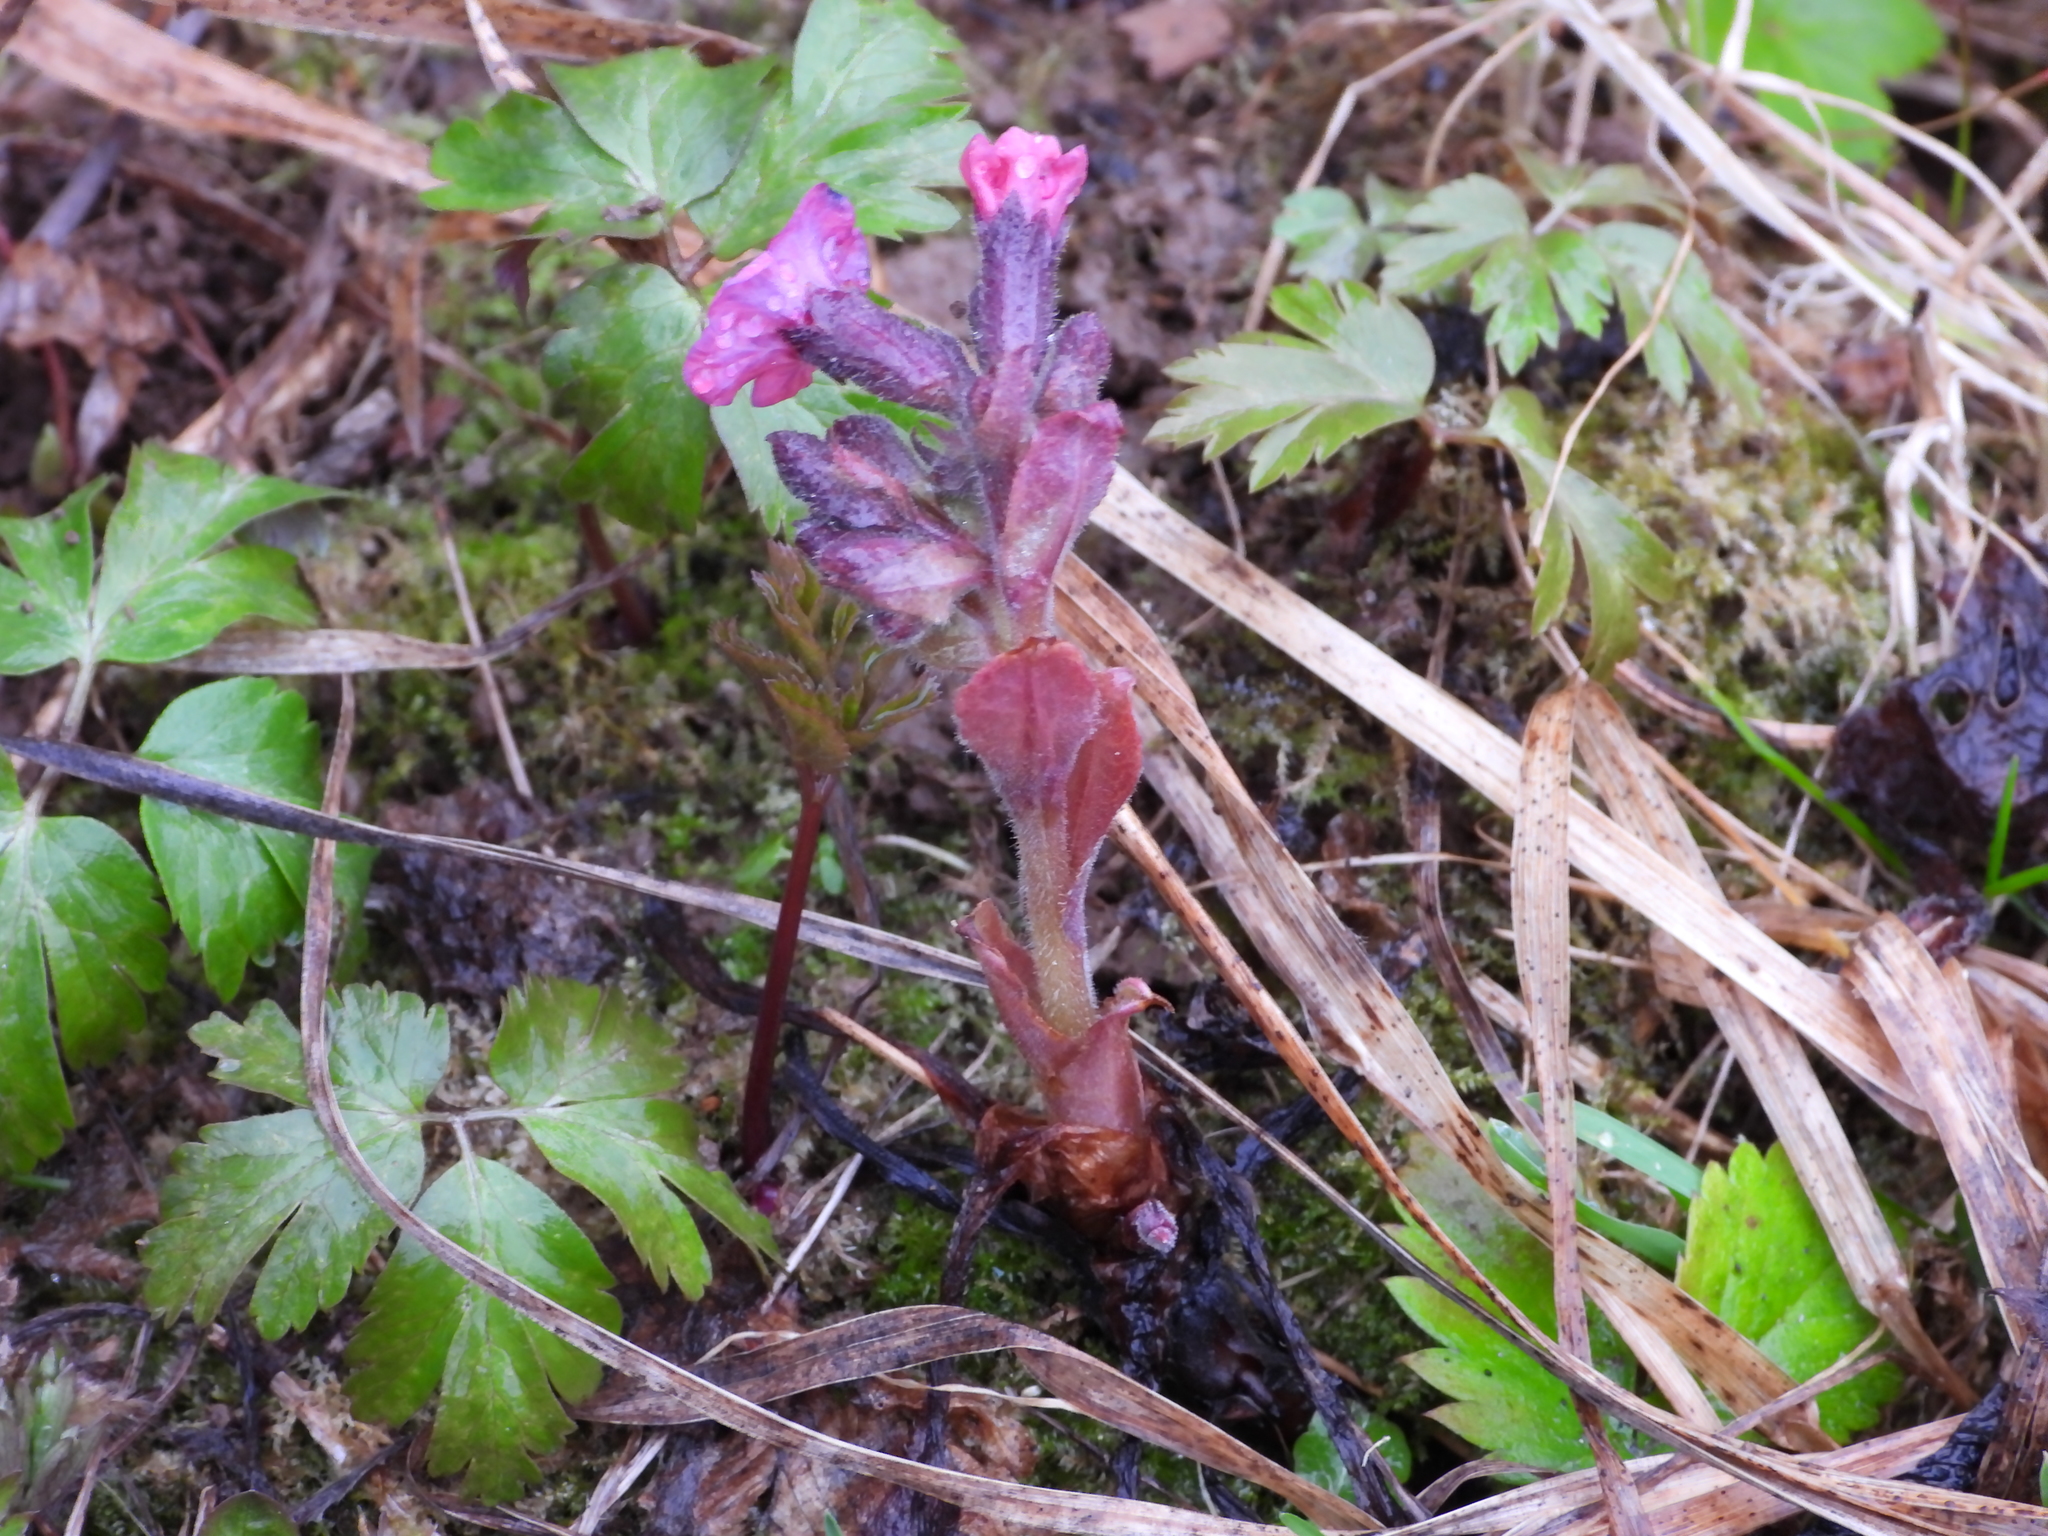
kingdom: Plantae
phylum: Tracheophyta
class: Magnoliopsida
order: Boraginales
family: Boraginaceae
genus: Pulmonaria
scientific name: Pulmonaria obscura
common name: Suffolk lungwort
